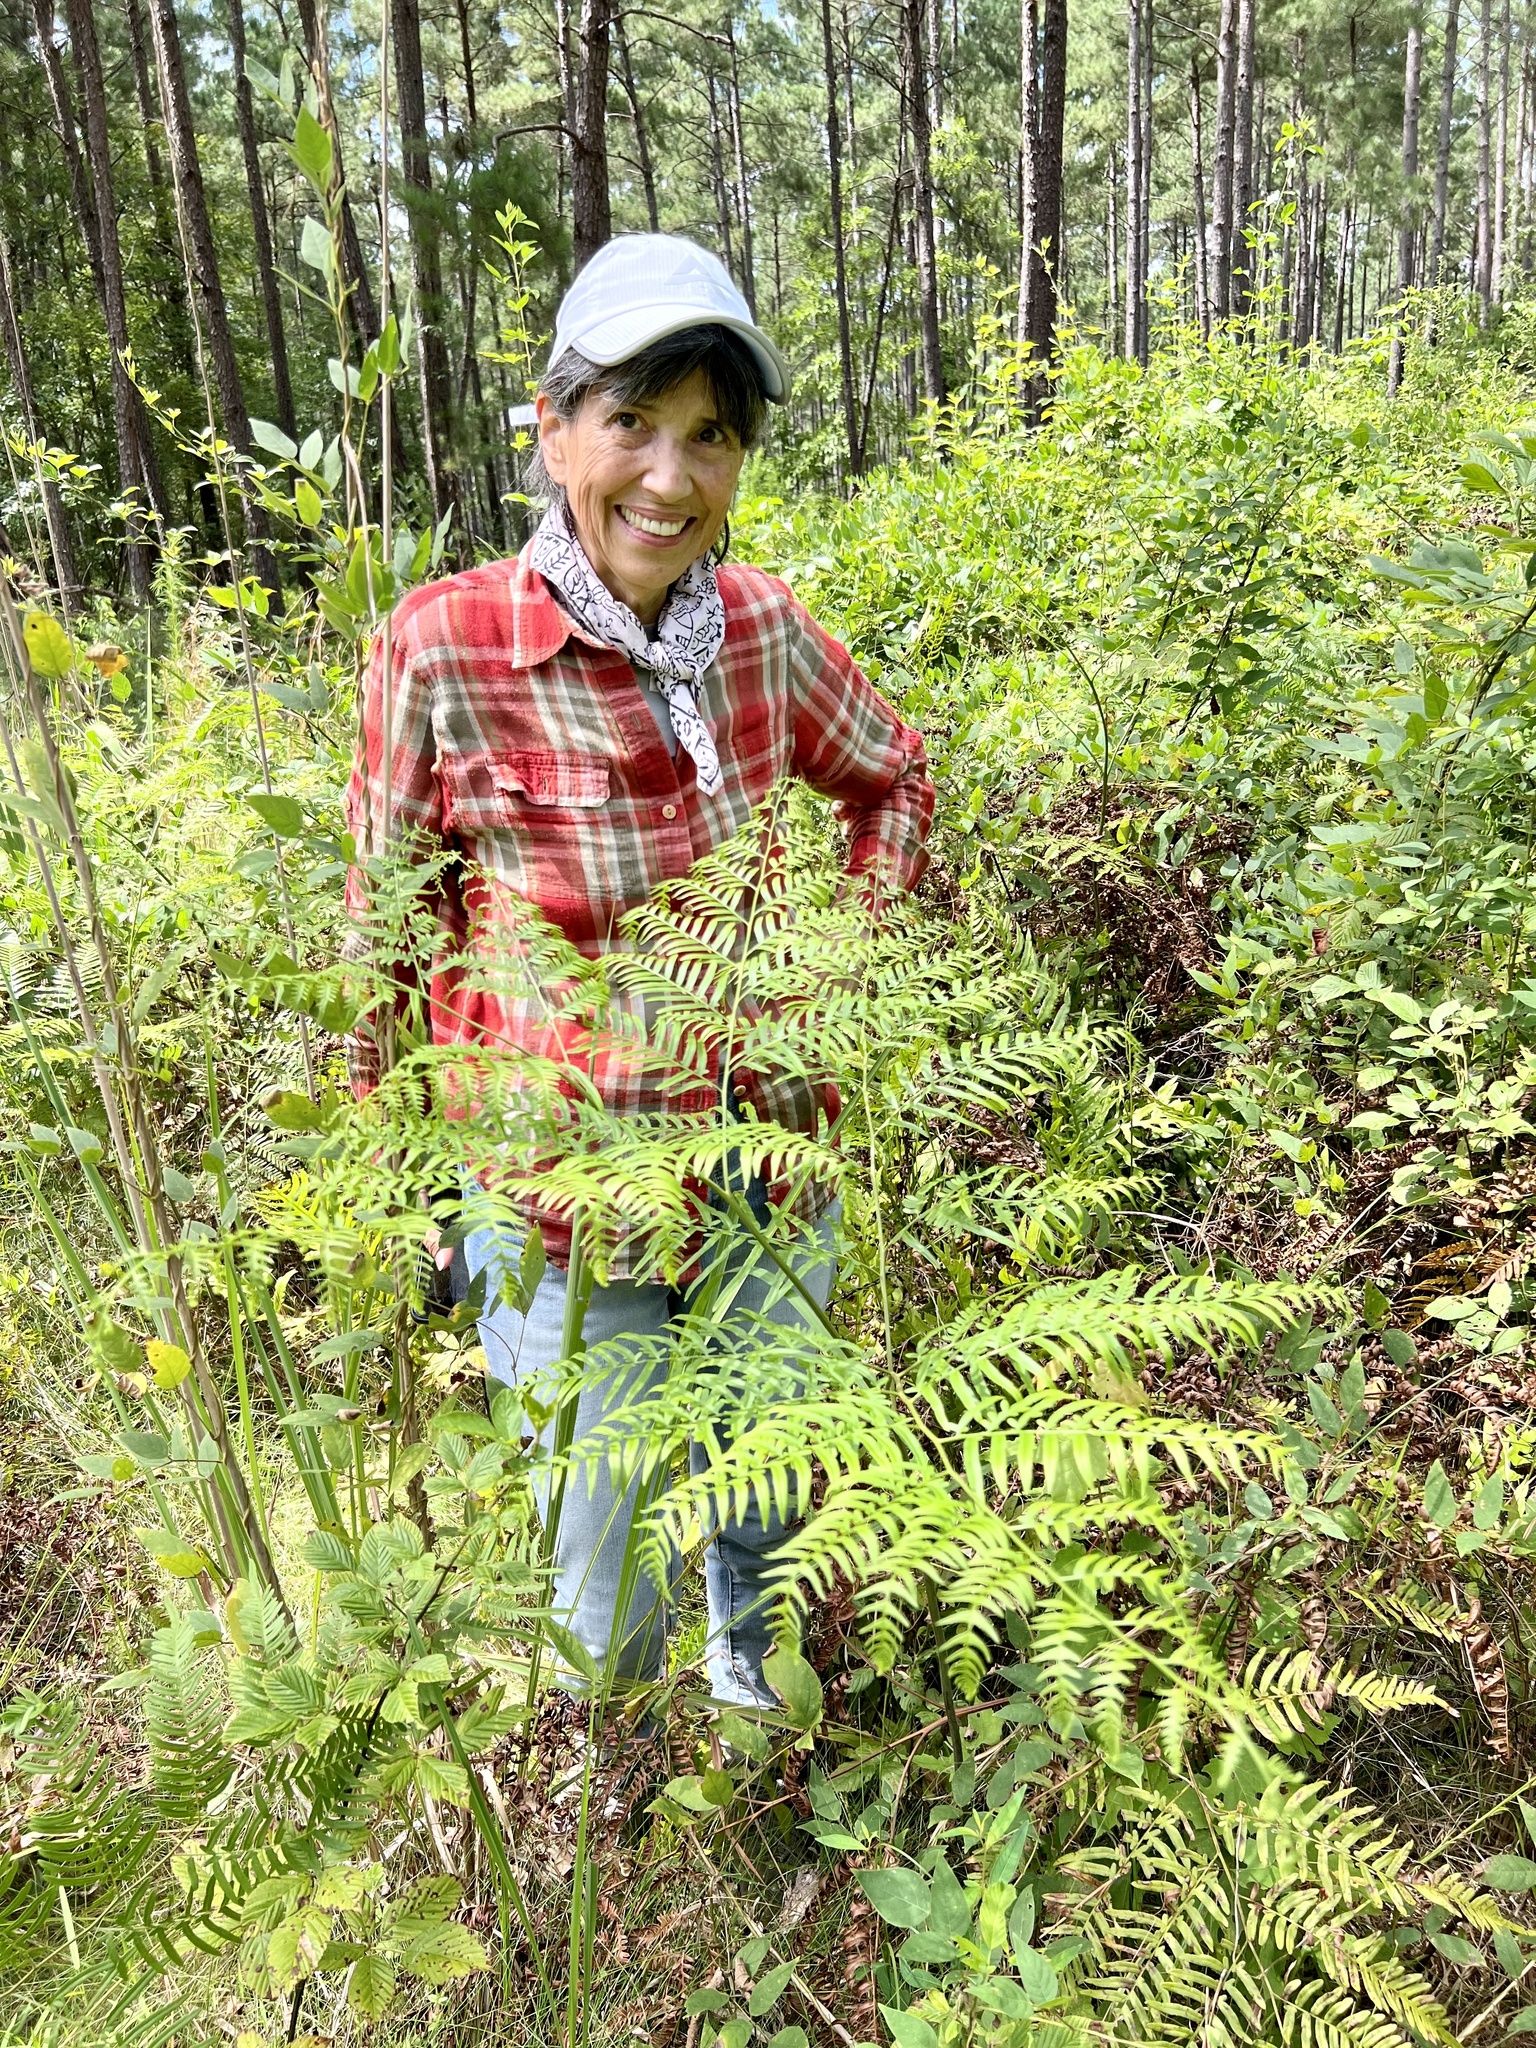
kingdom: Plantae
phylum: Tracheophyta
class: Polypodiopsida
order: Polypodiales
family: Dennstaedtiaceae
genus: Pteridium
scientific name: Pteridium aquilinum
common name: Bracken
